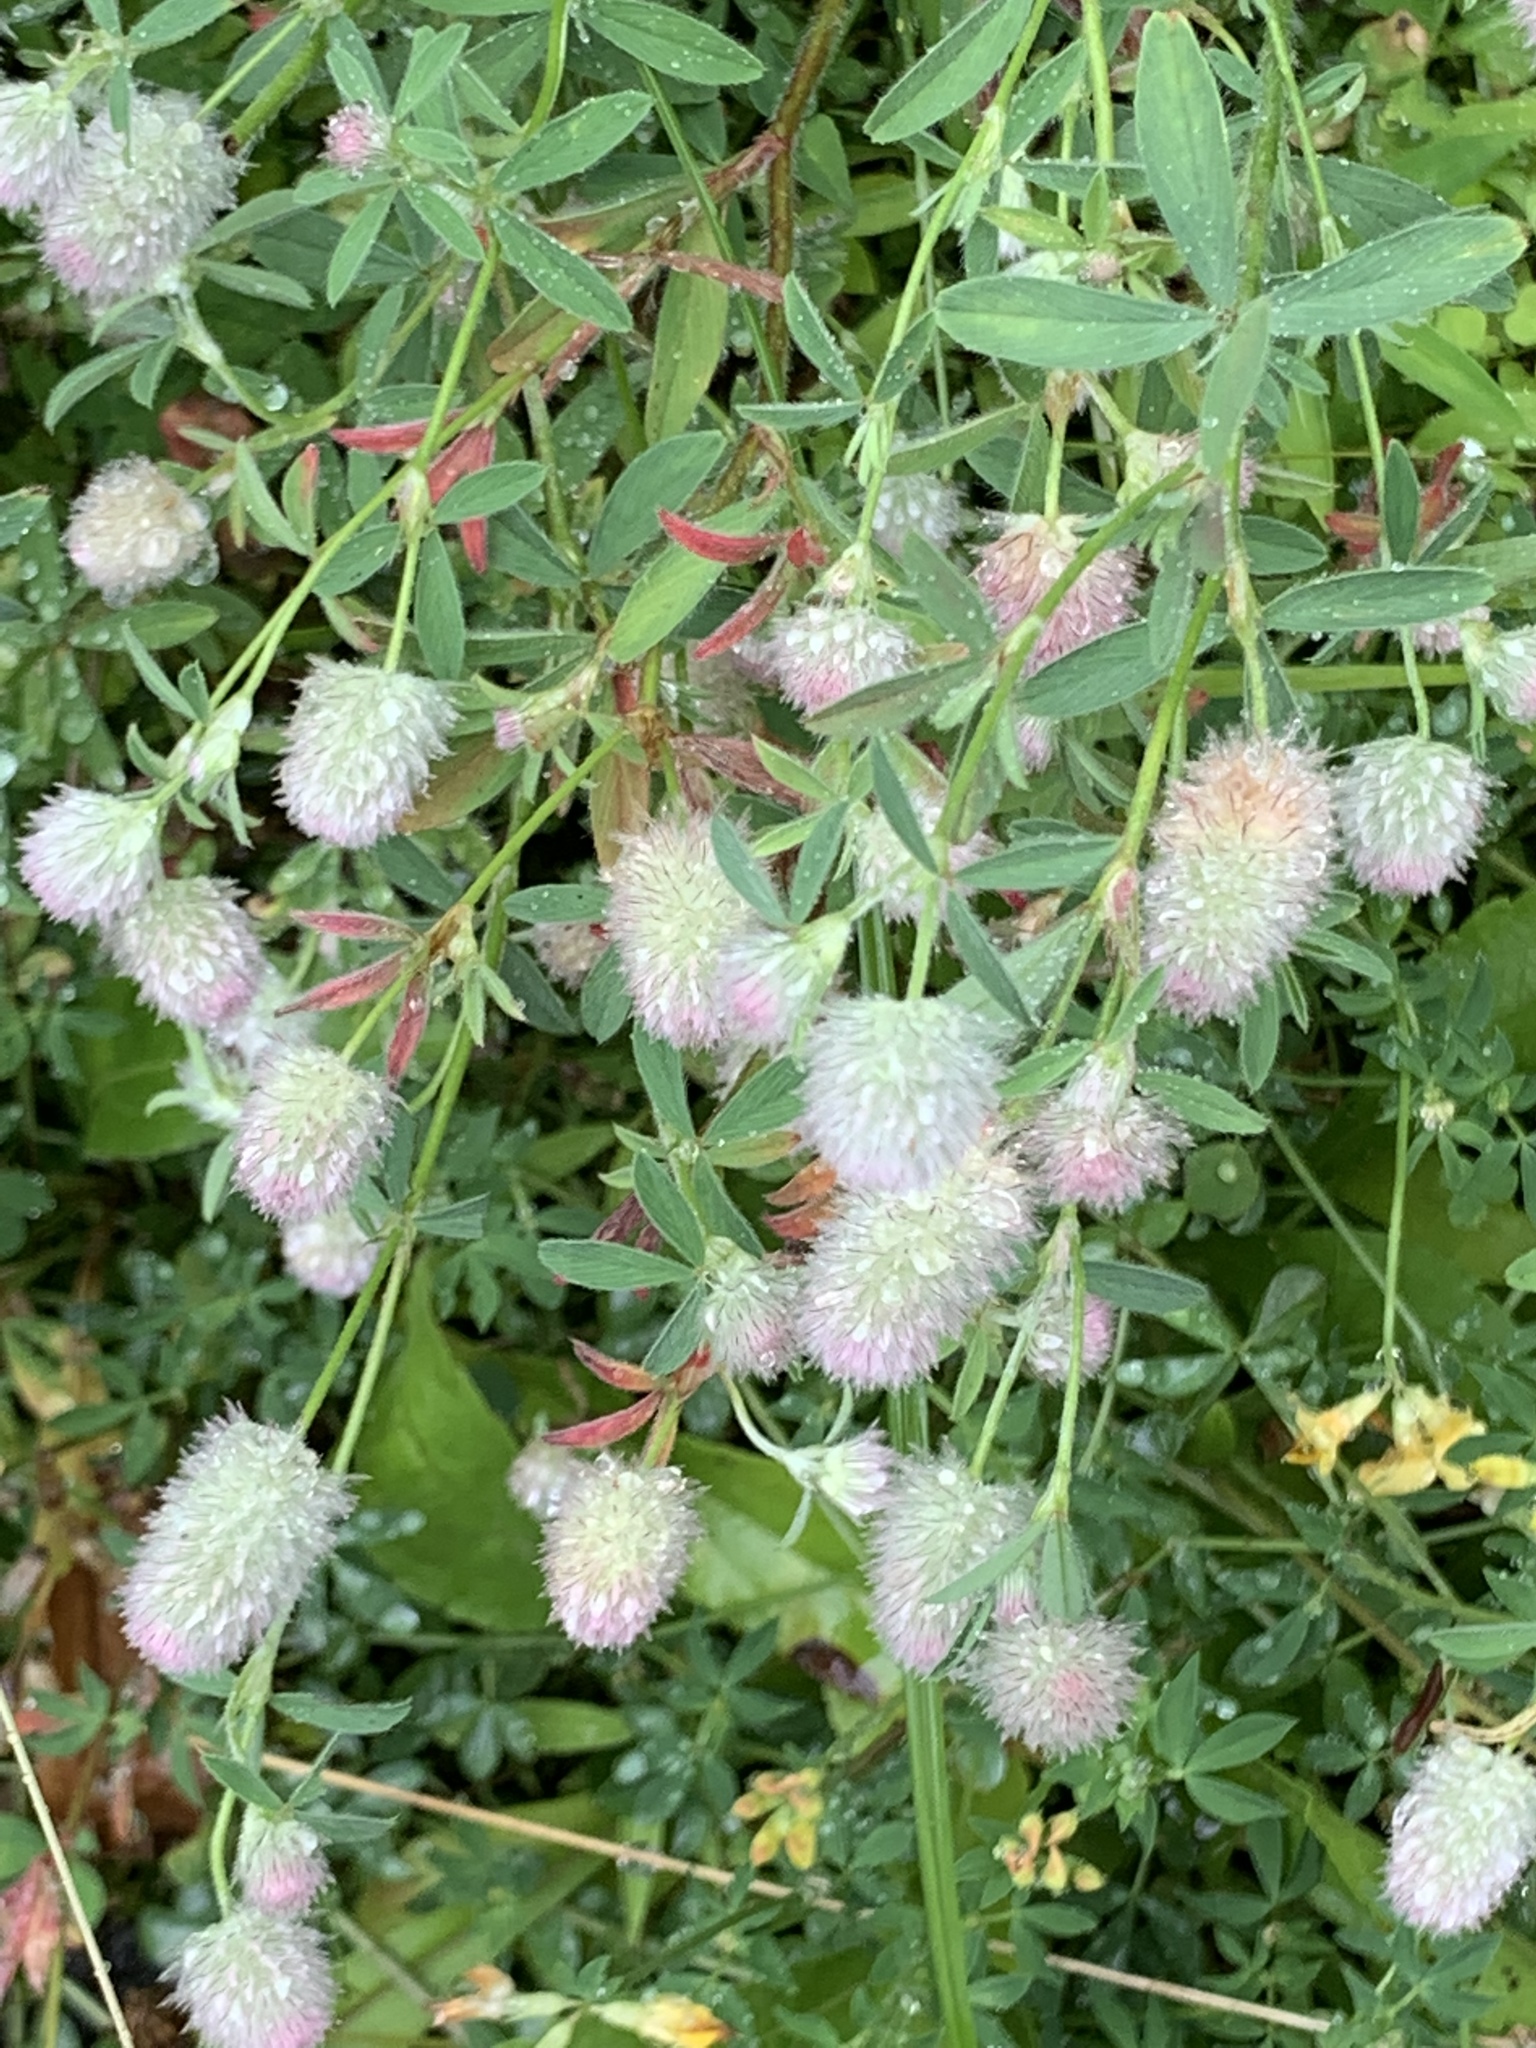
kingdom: Plantae
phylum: Tracheophyta
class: Magnoliopsida
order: Fabales
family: Fabaceae
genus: Trifolium
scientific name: Trifolium arvense
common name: Hare's-foot clover
